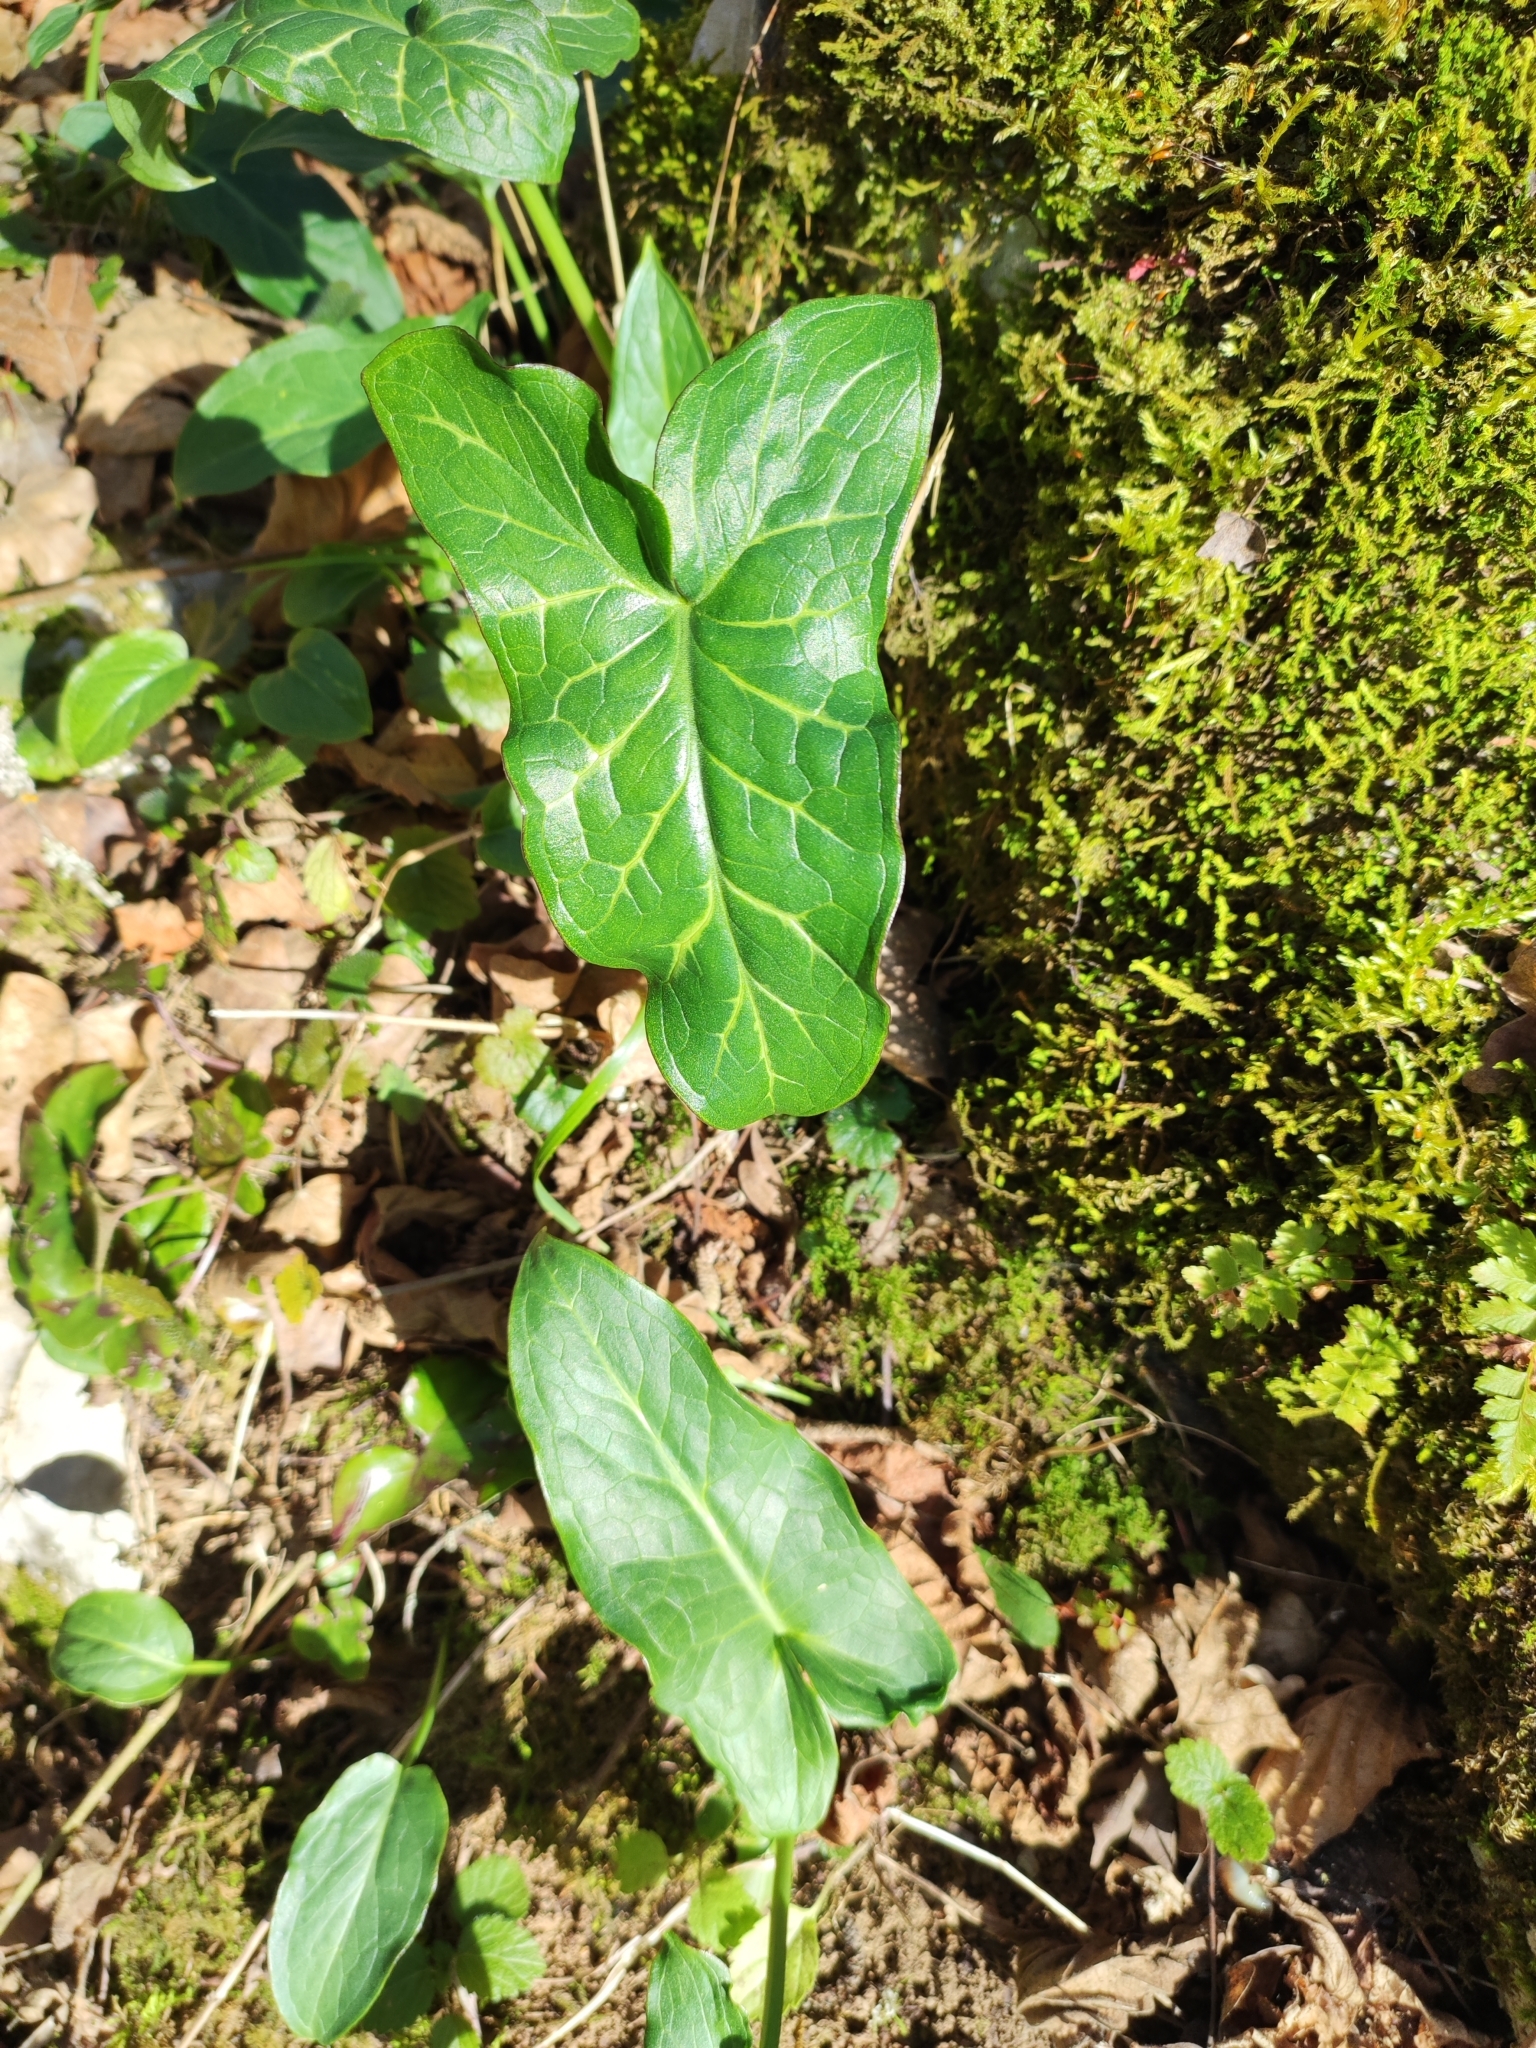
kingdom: Plantae
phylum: Tracheophyta
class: Liliopsida
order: Alismatales
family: Araceae
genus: Arum
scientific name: Arum italicum
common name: Italian lords-and-ladies
